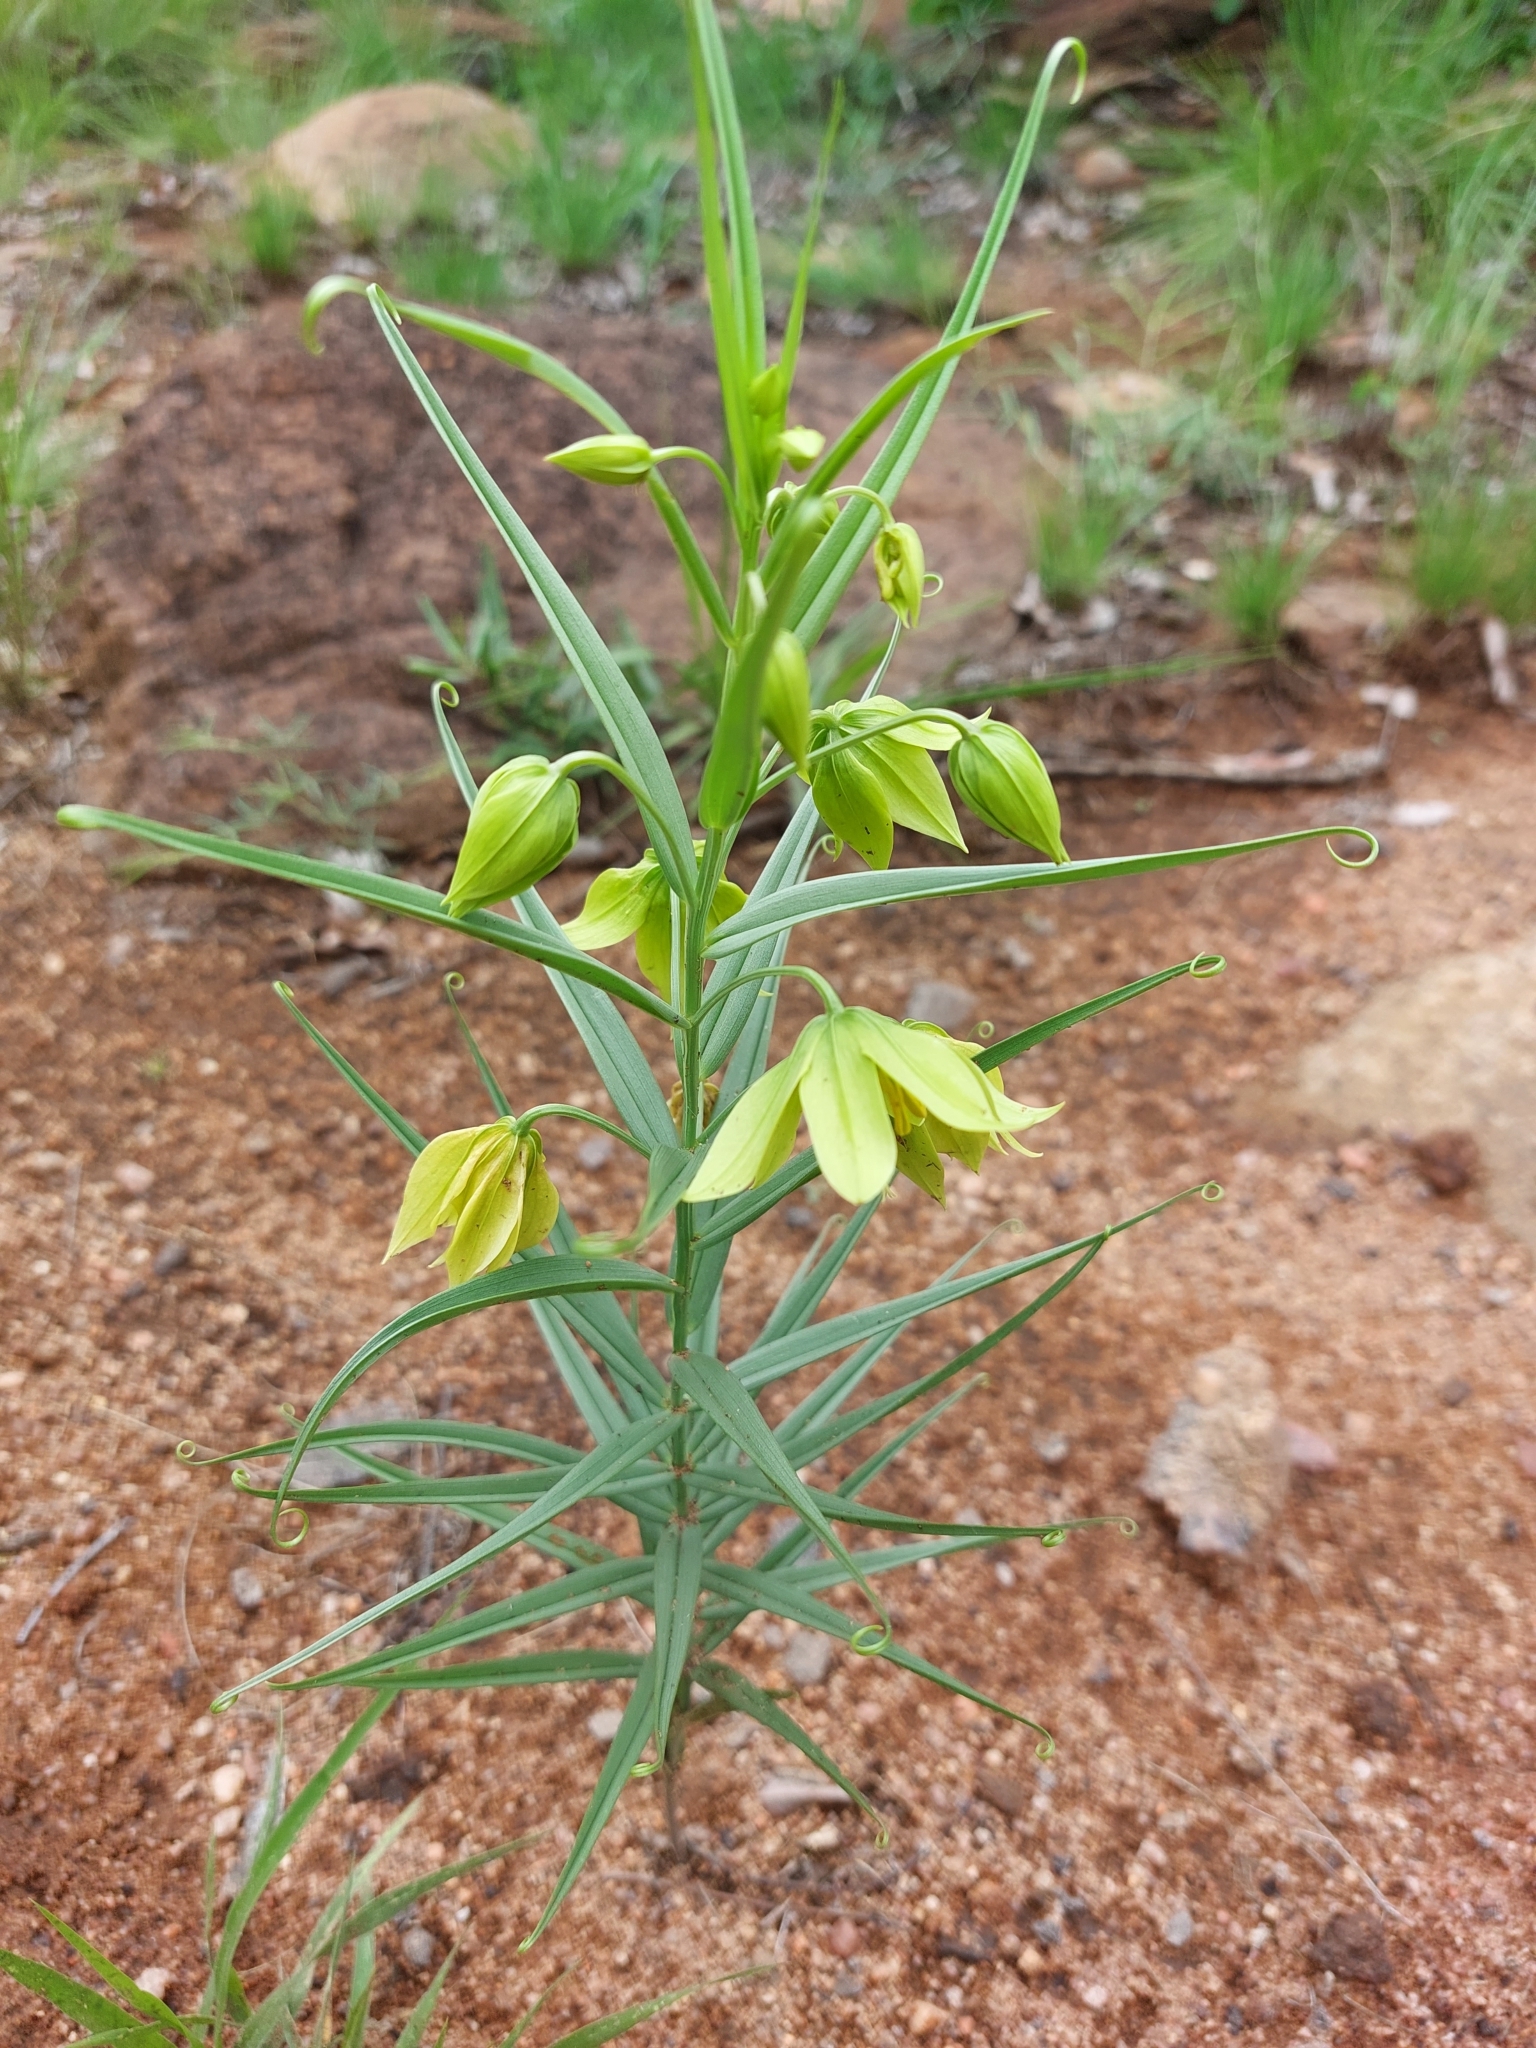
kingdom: Plantae
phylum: Tracheophyta
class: Liliopsida
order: Liliales
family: Colchicaceae
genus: Gloriosa
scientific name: Gloriosa rigidifolia
